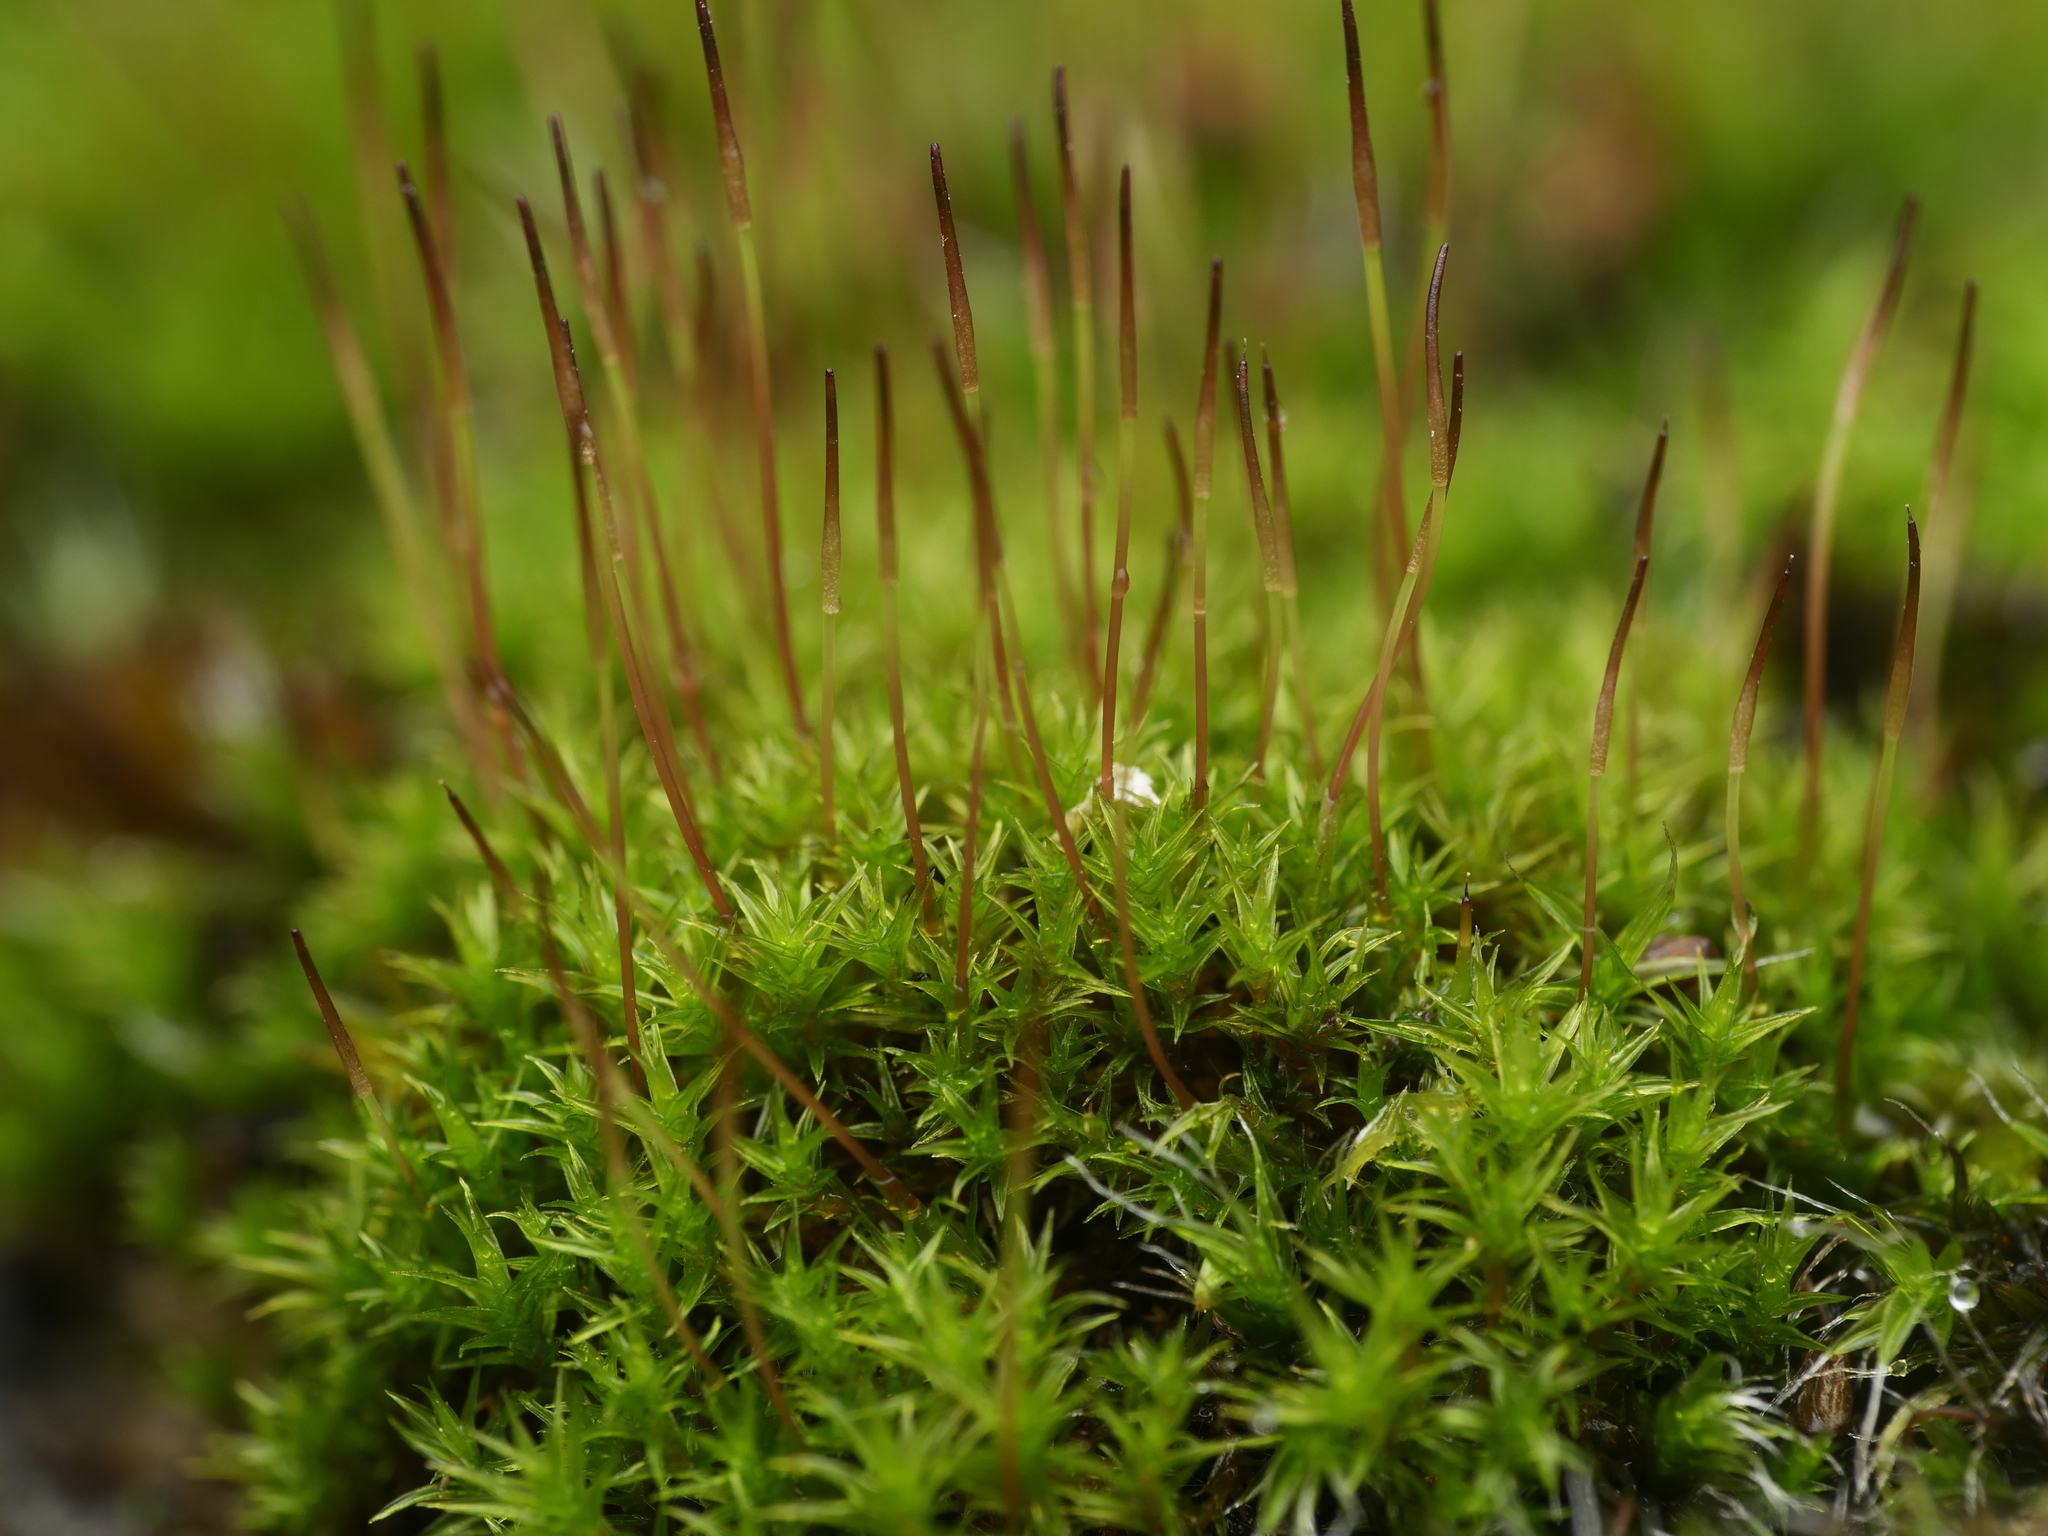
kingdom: Plantae
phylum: Bryophyta
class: Bryopsida
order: Dicranales
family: Ditrichaceae
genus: Ceratodon
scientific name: Ceratodon purpureus
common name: Redshank
